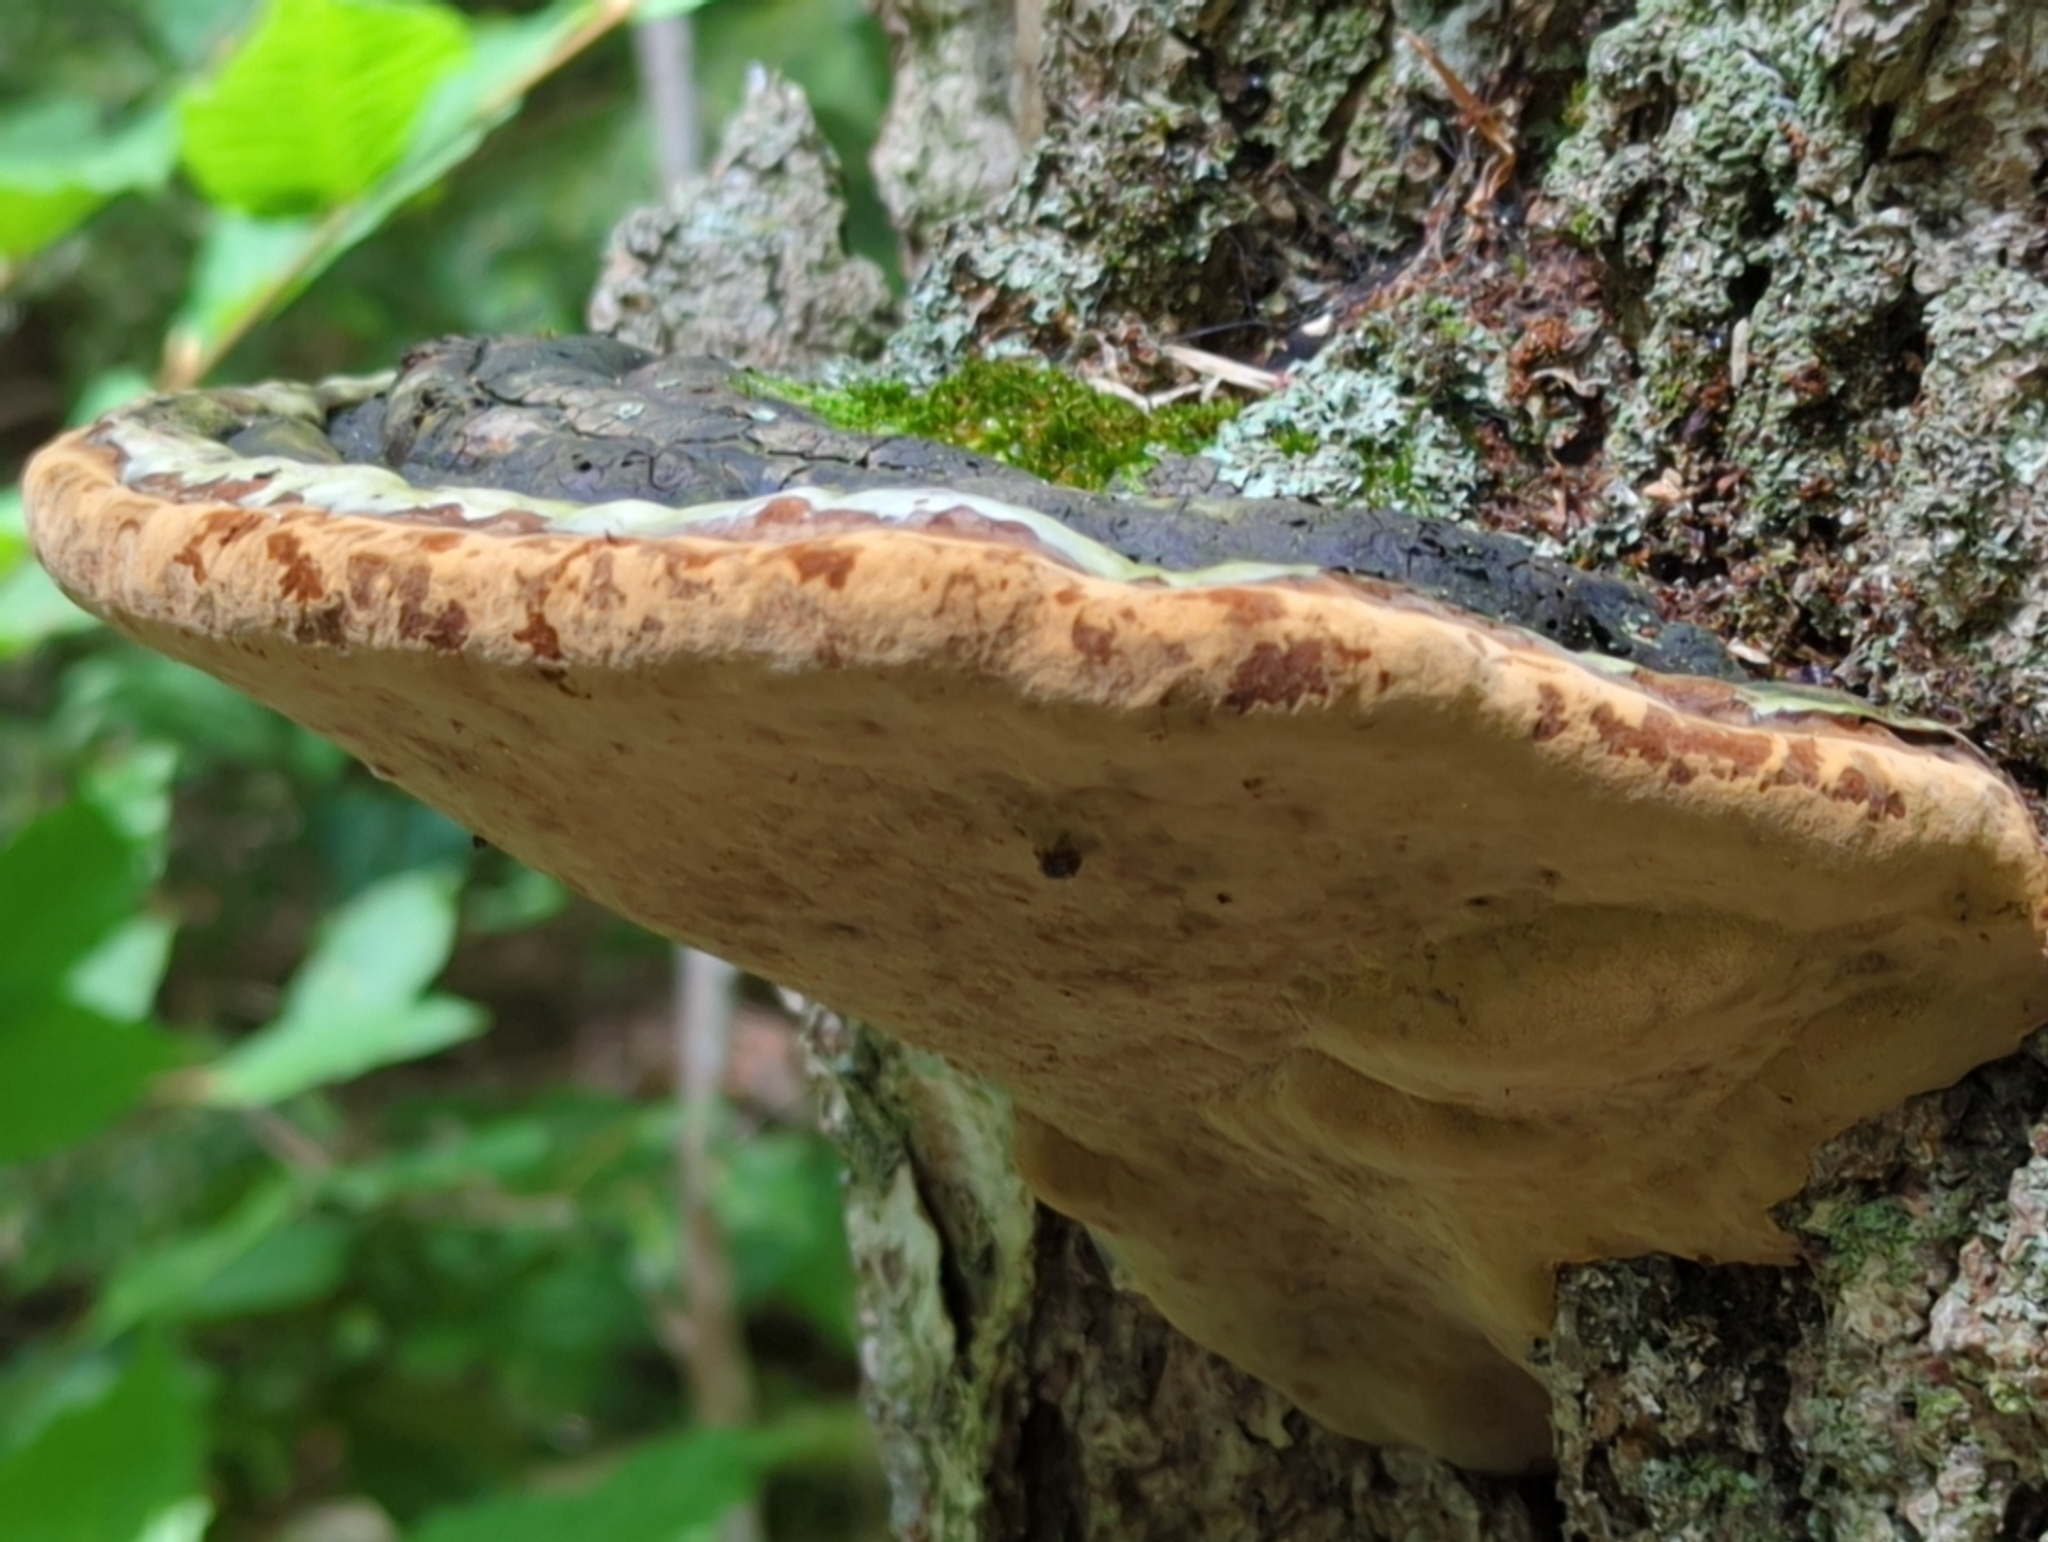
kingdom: Fungi
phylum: Basidiomycota
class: Agaricomycetes
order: Hymenochaetales
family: Hymenochaetaceae
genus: Phellinus
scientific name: Phellinus igniarius
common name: Willow bracket
